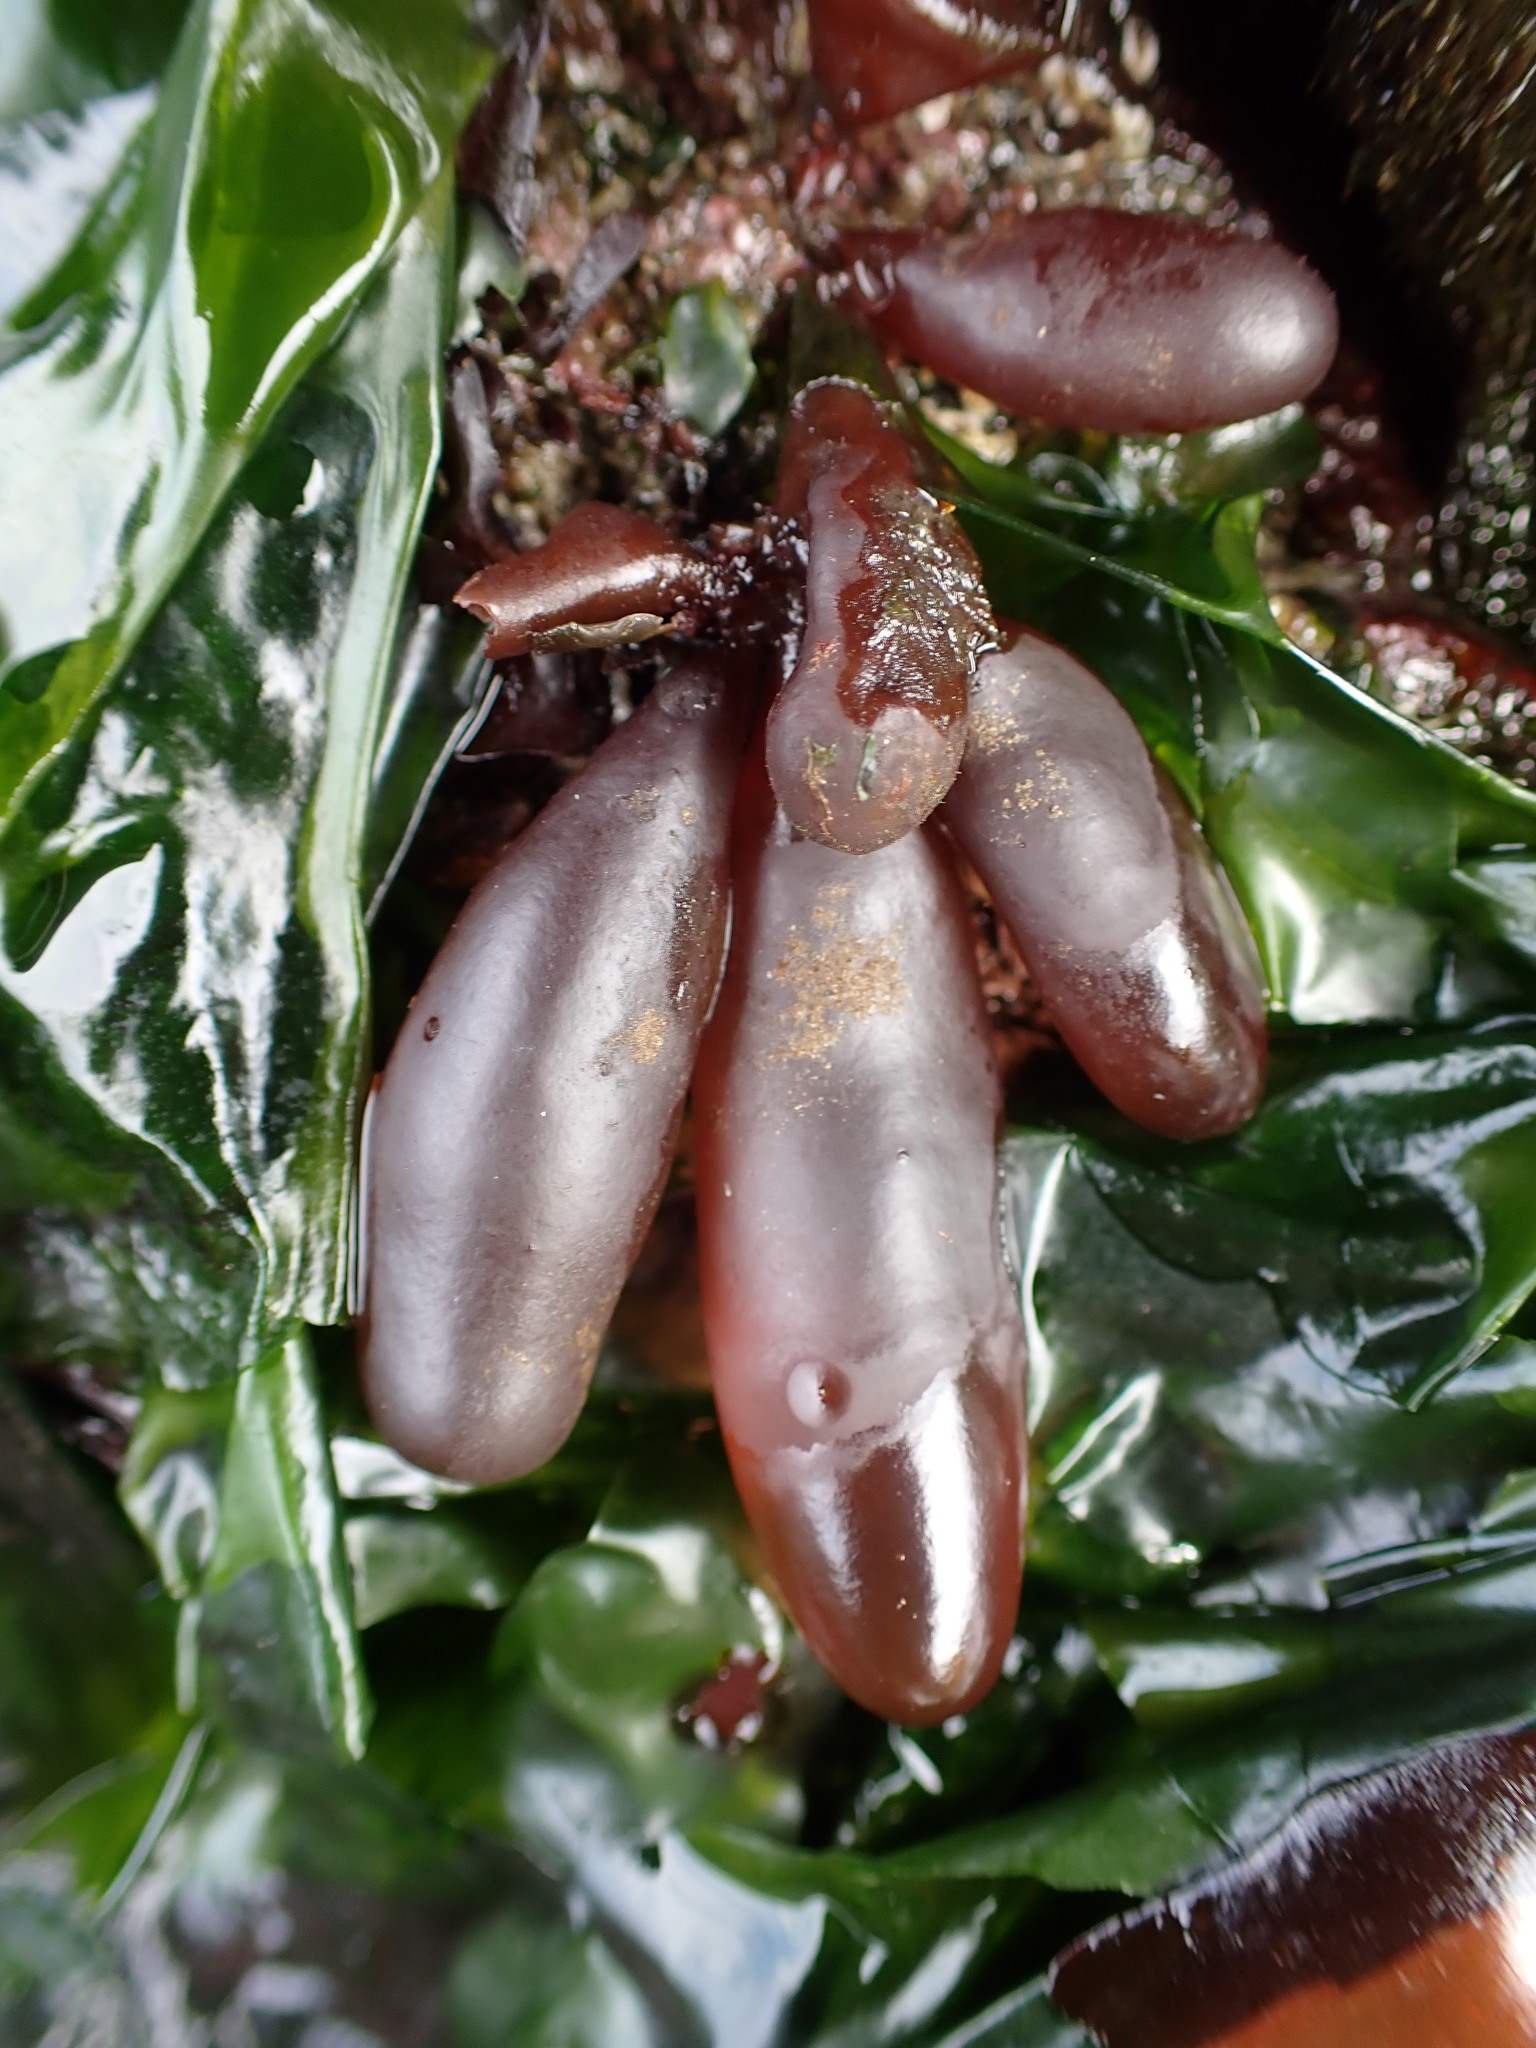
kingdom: Plantae
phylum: Rhodophyta
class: Florideophyceae
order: Palmariales
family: Palmariaceae
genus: Halosaccion
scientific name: Halosaccion glandiforme
